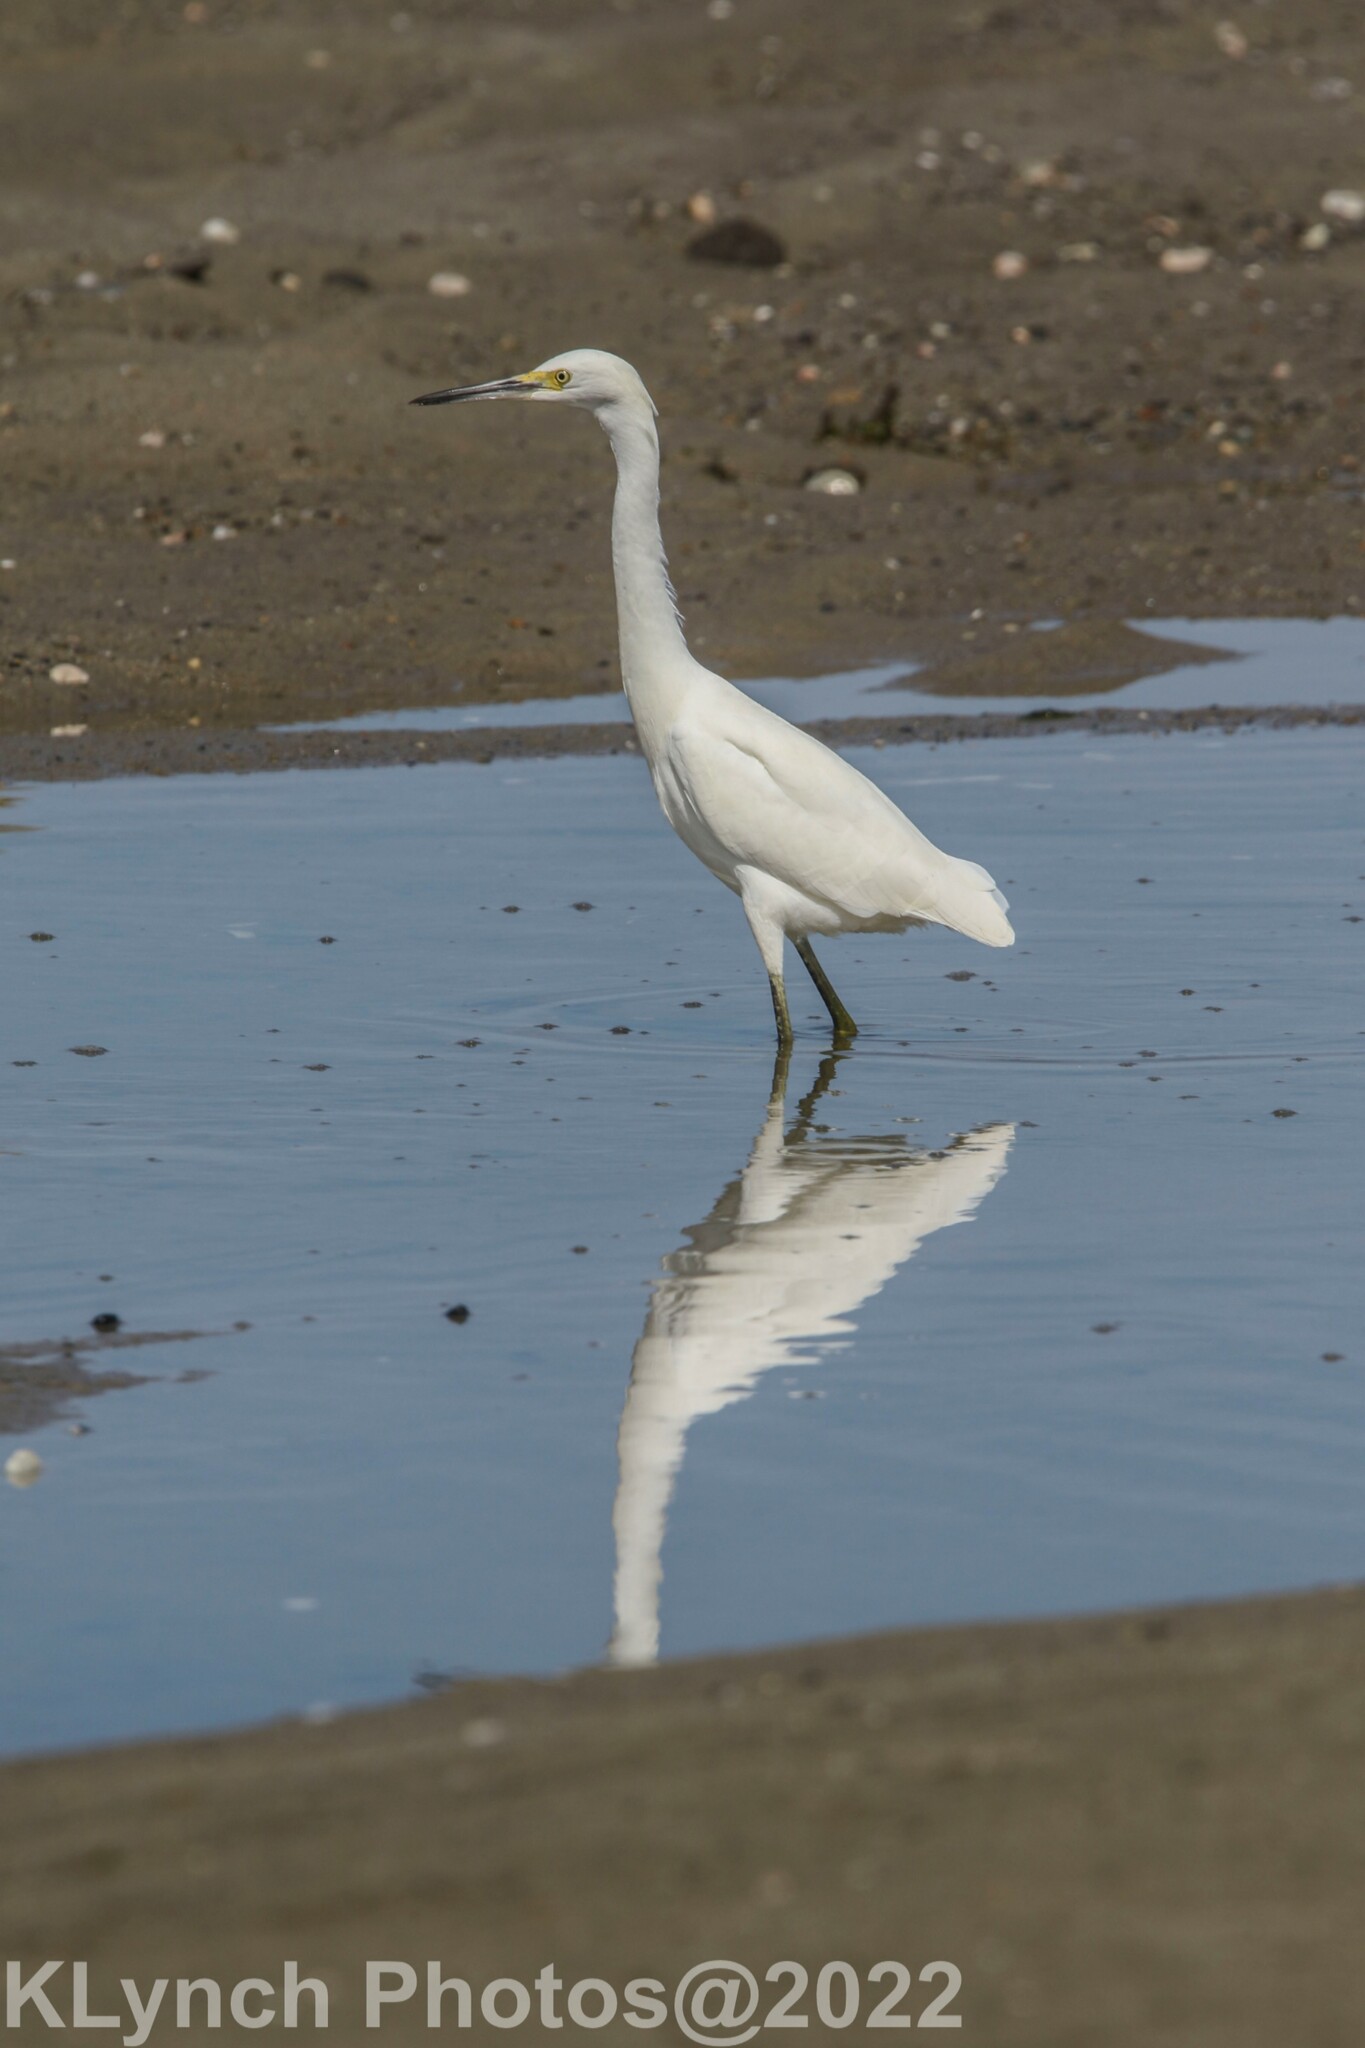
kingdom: Animalia
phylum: Chordata
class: Aves
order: Pelecaniformes
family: Ardeidae
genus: Egretta
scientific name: Egretta thula
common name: Snowy egret
